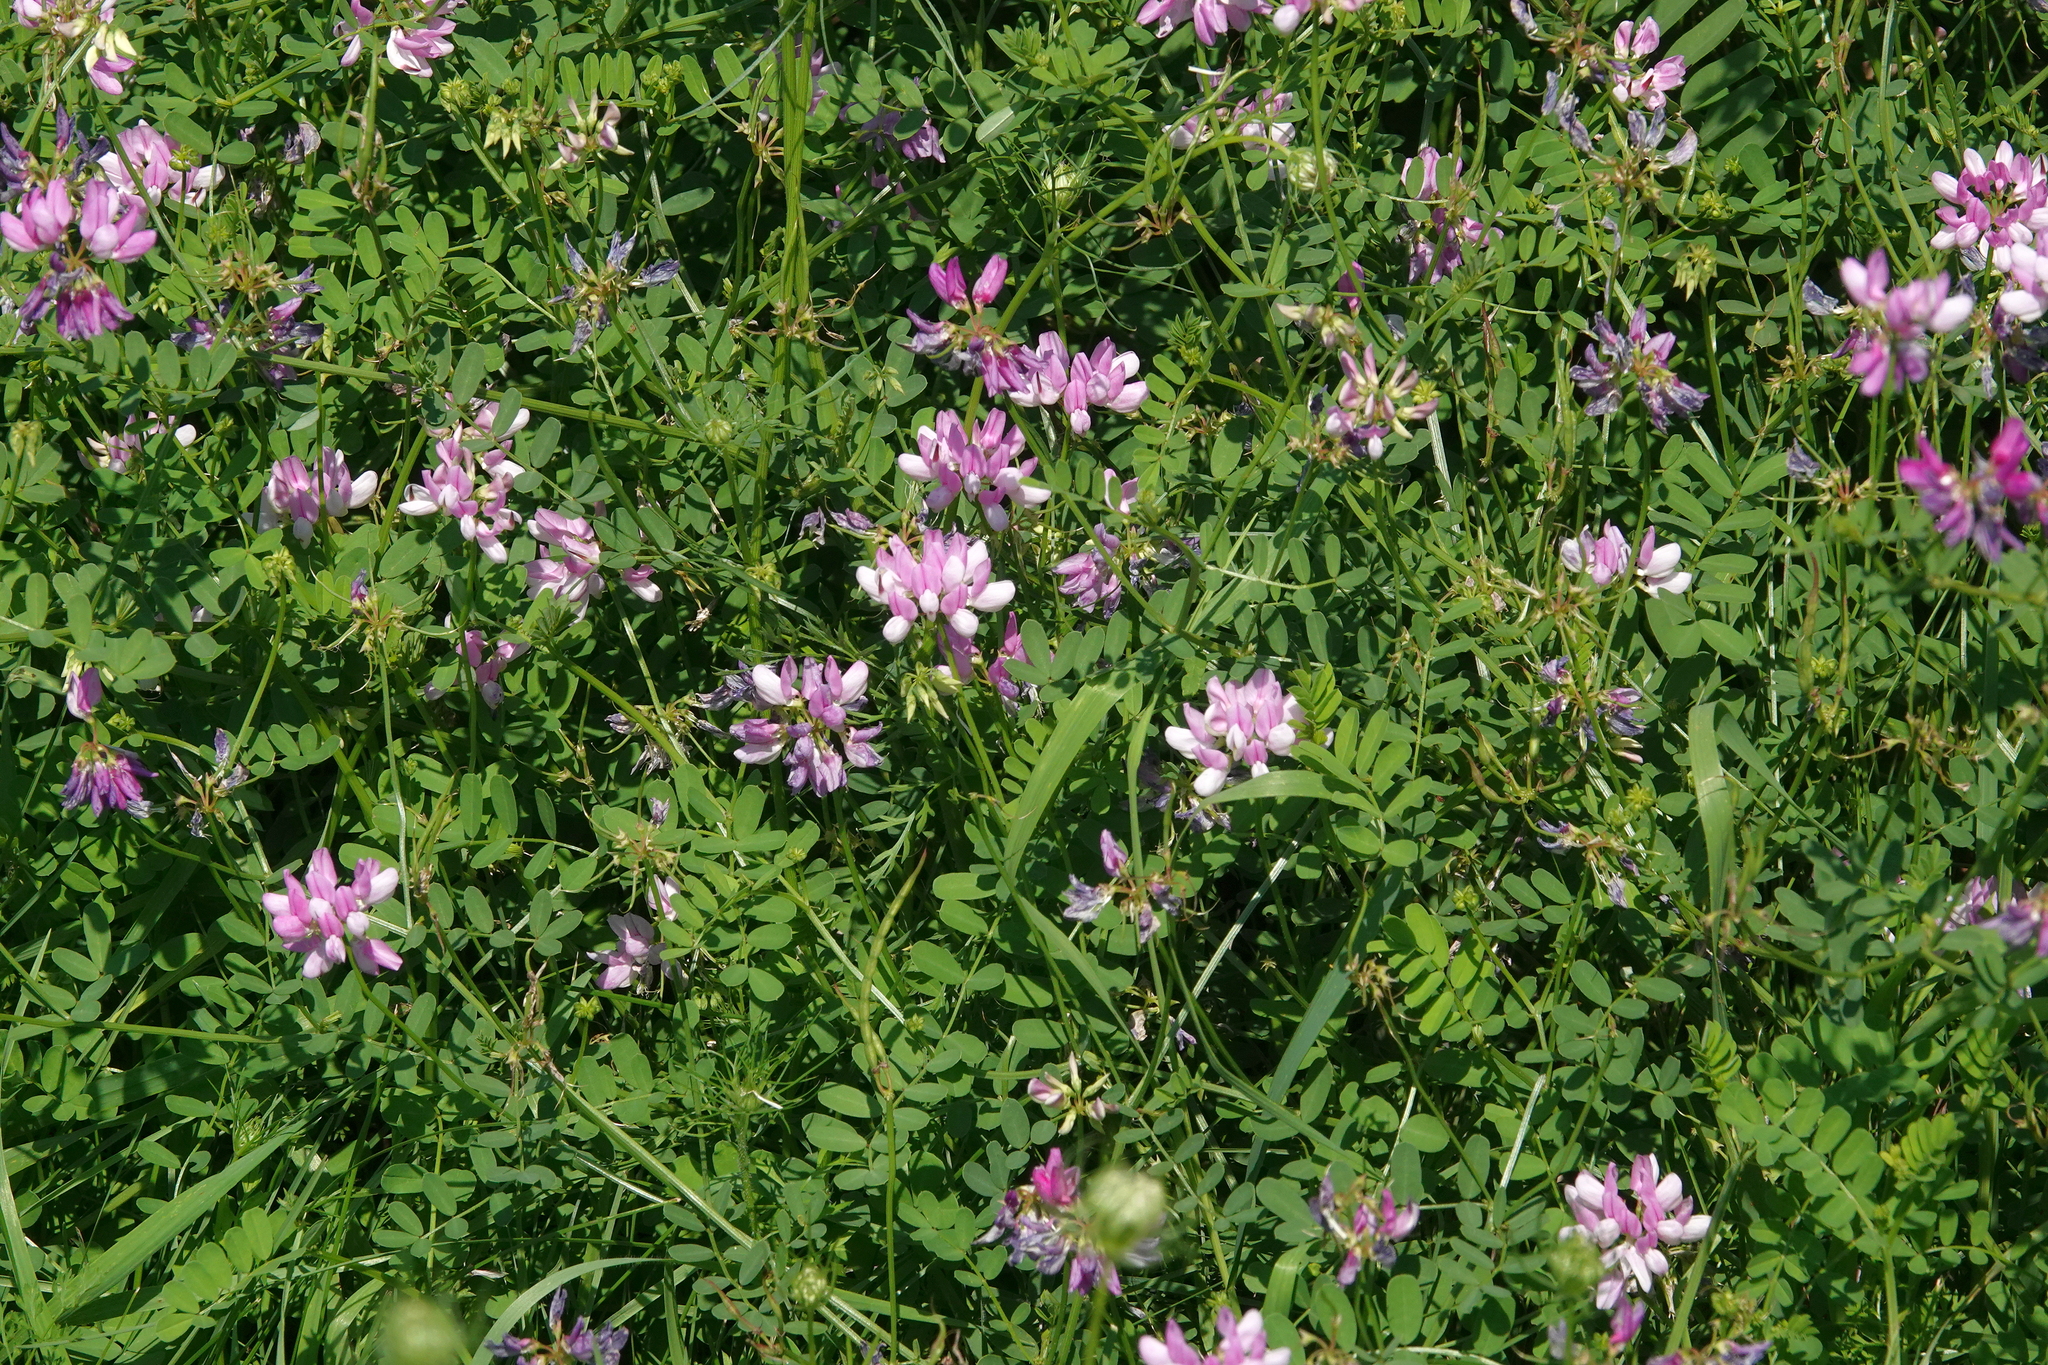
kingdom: Plantae
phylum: Tracheophyta
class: Magnoliopsida
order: Fabales
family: Fabaceae
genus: Coronilla
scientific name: Coronilla varia
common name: Crownvetch
